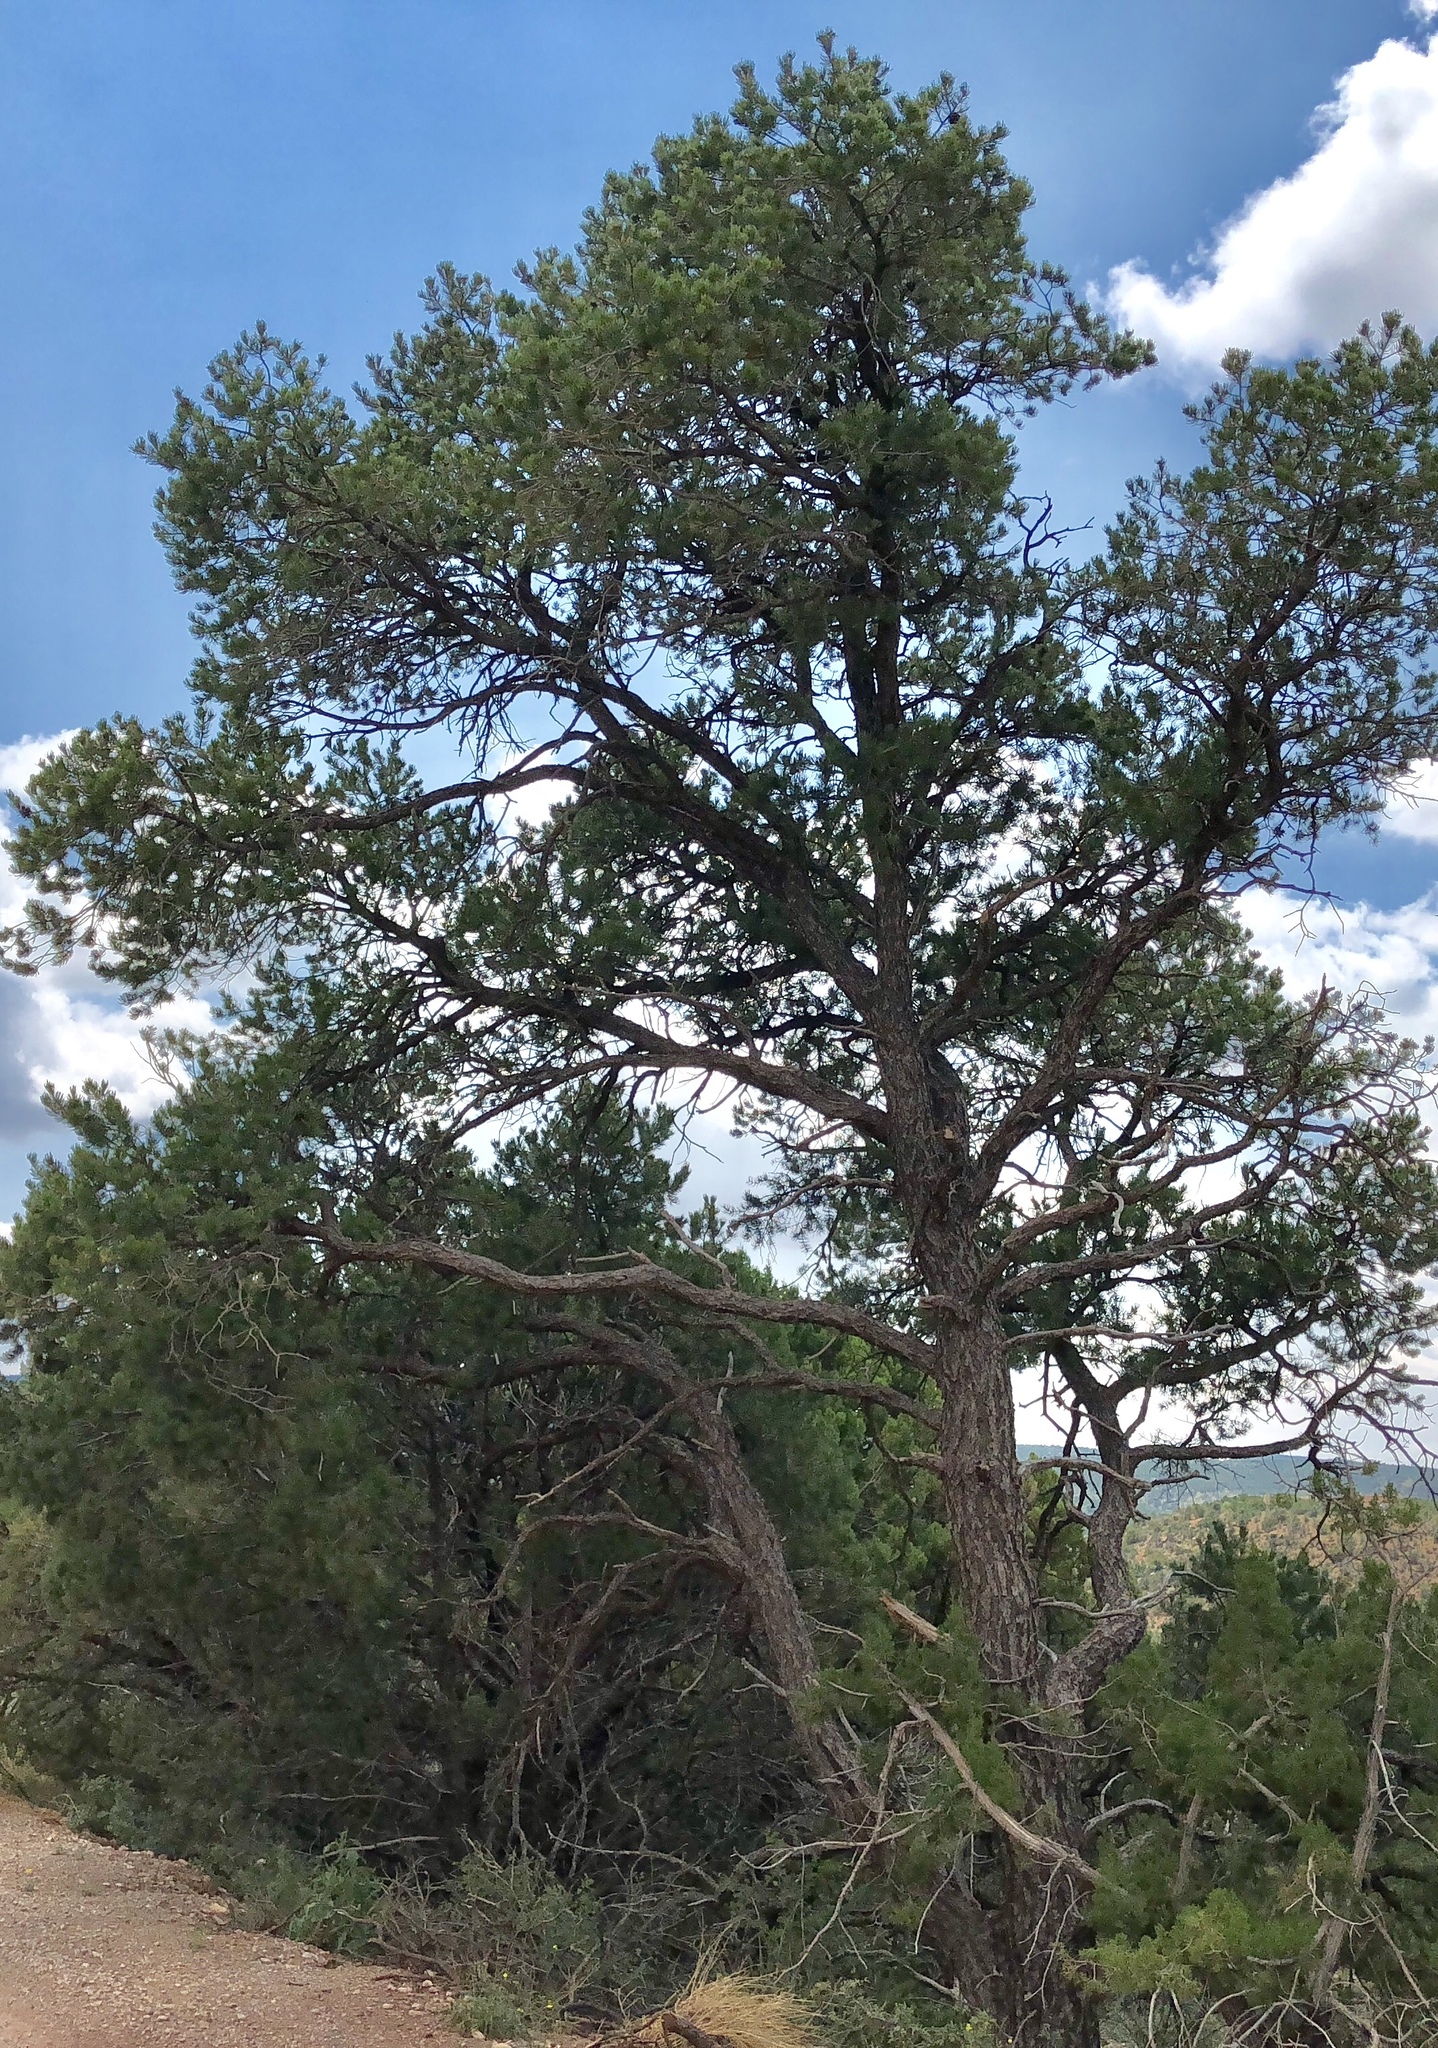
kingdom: Plantae
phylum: Tracheophyta
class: Pinopsida
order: Pinales
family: Pinaceae
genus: Pinus
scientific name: Pinus edulis
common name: Colorado pinyon
